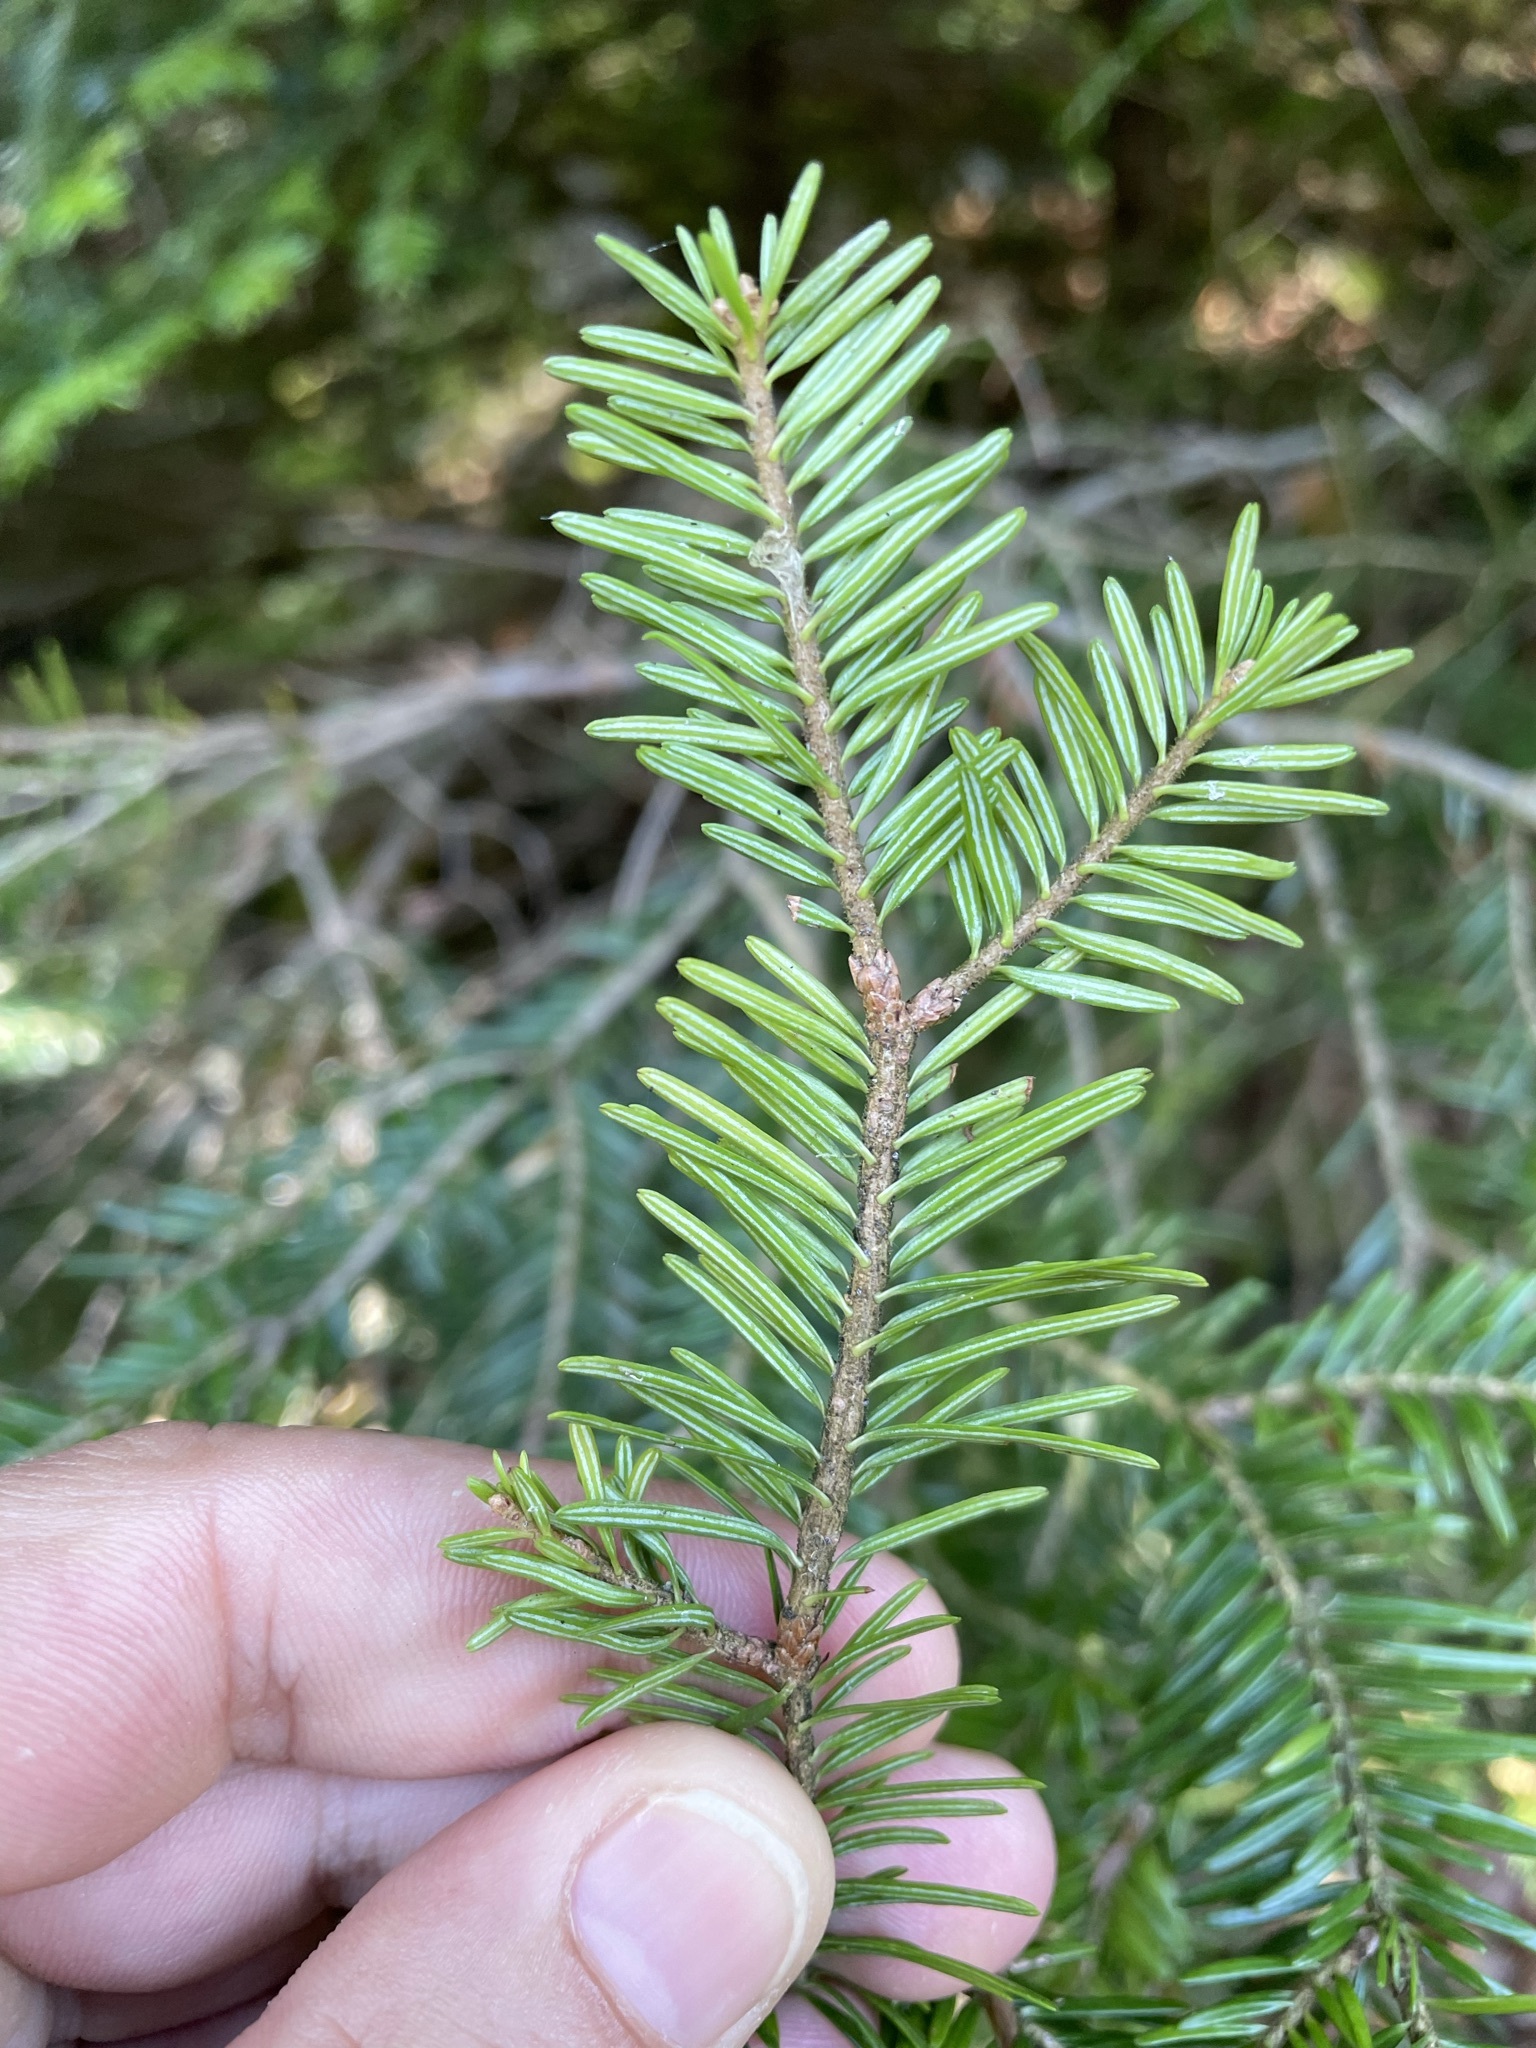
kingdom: Plantae
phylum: Tracheophyta
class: Pinopsida
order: Pinales
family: Pinaceae
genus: Abies
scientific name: Abies alba
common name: Silver fir
